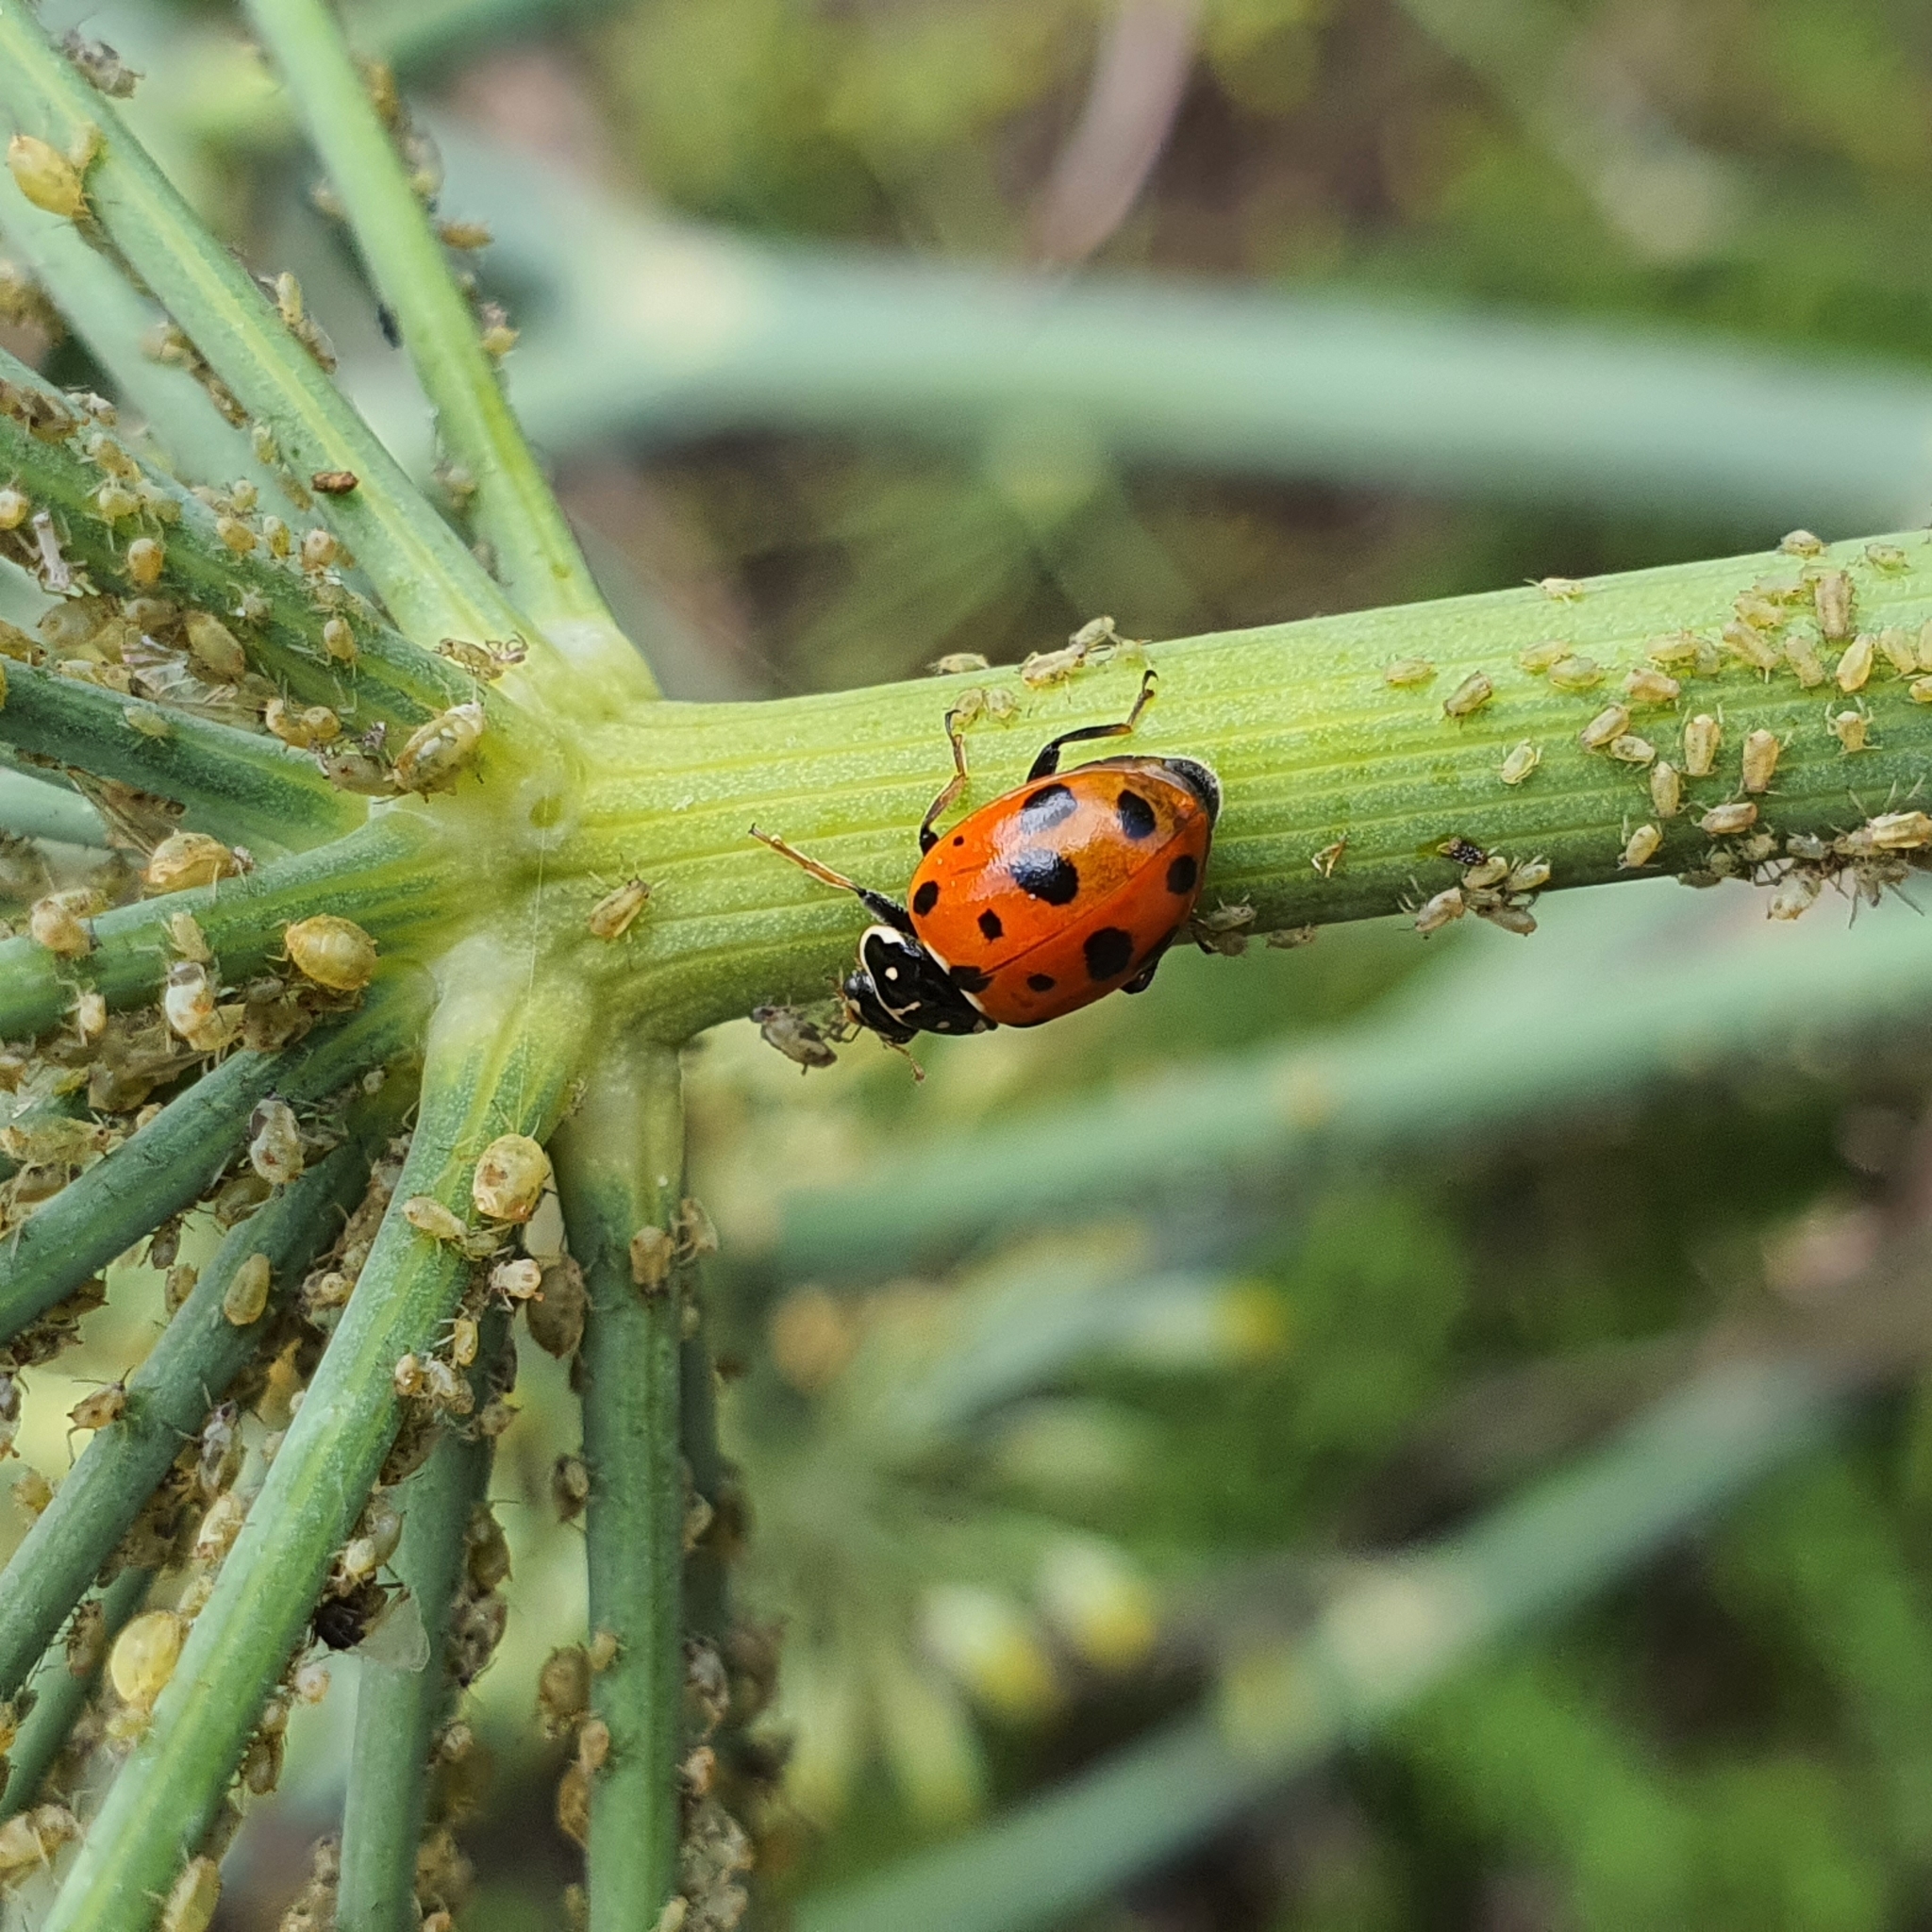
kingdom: Animalia
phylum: Arthropoda
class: Insecta
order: Coleoptera
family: Coccinellidae
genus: Hippodamia
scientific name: Hippodamia variegata
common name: Ladybird beetle
